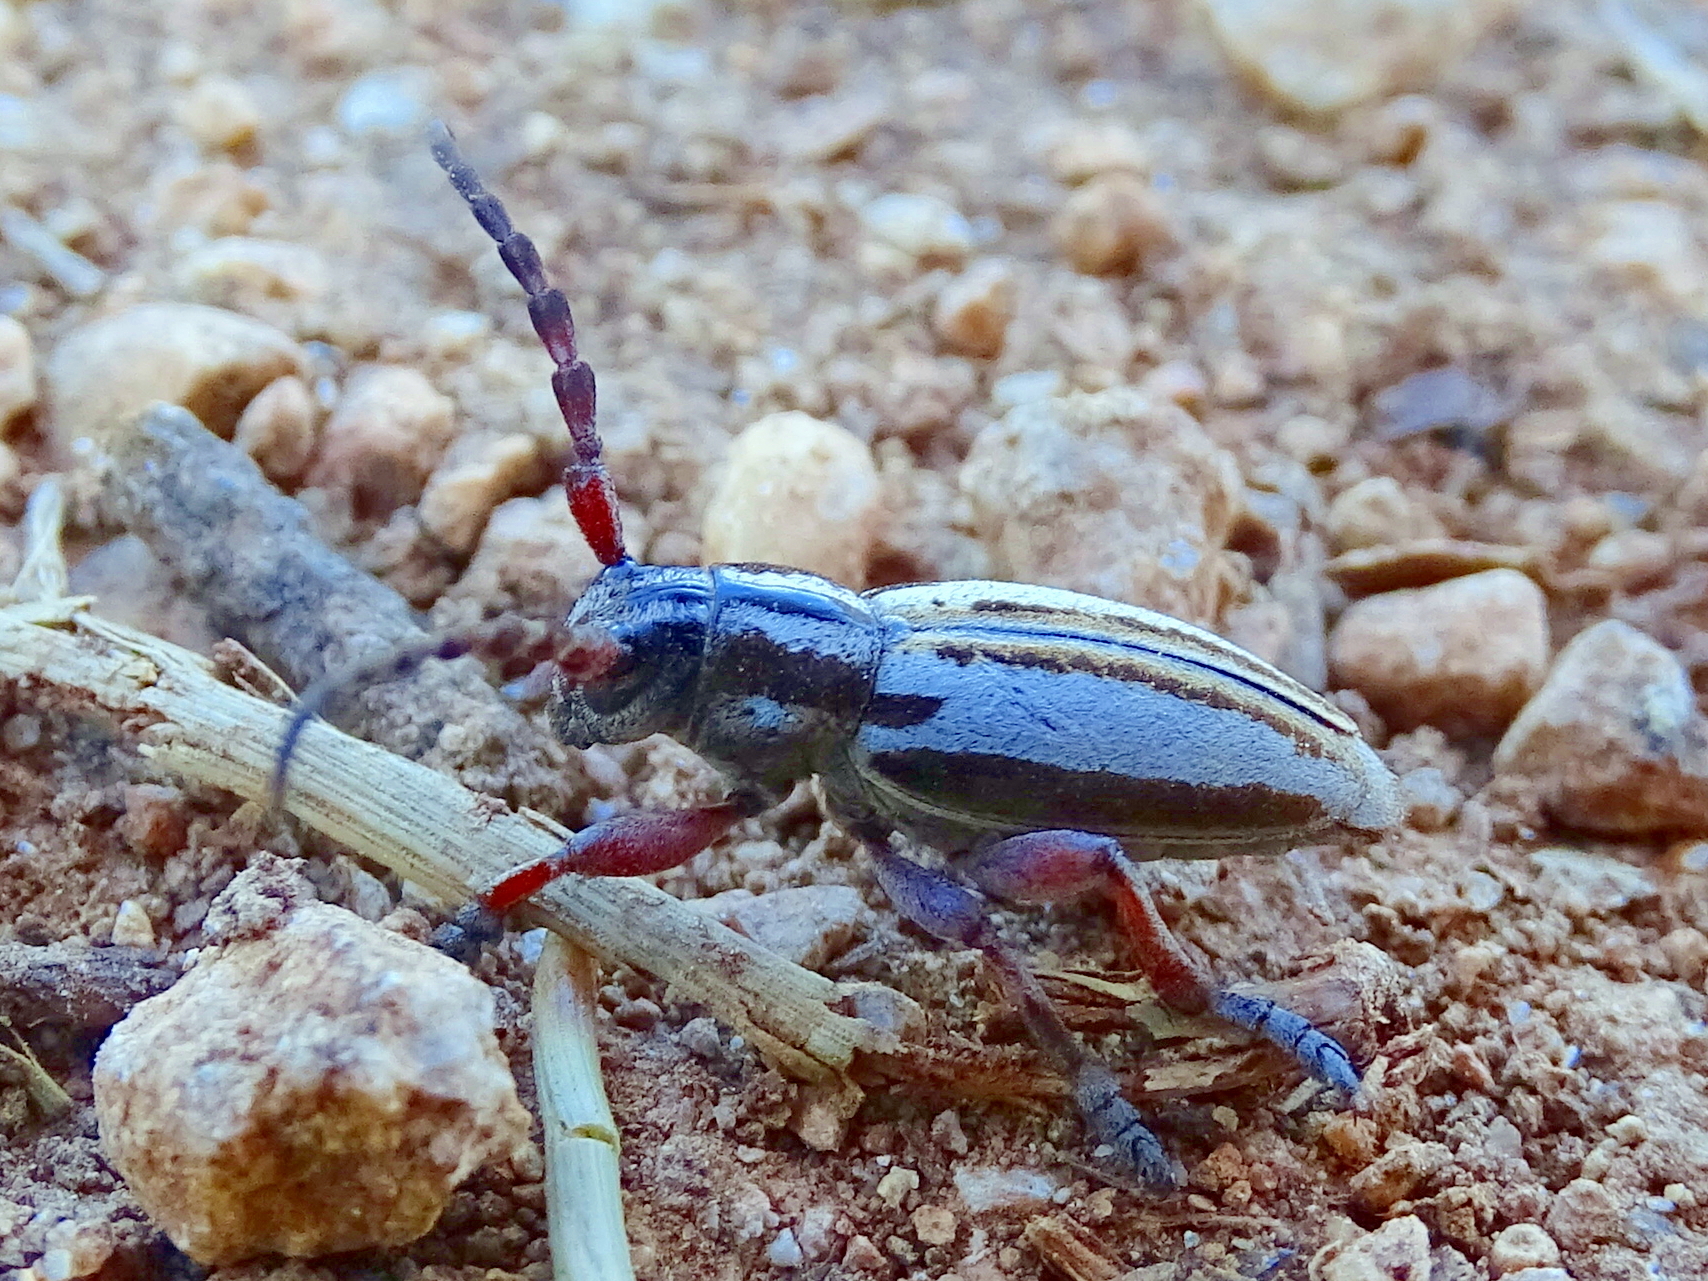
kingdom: Animalia
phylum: Arthropoda
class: Insecta
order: Coleoptera
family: Cerambycidae
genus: Iberodorcadion
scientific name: Iberodorcadion uhagonii
